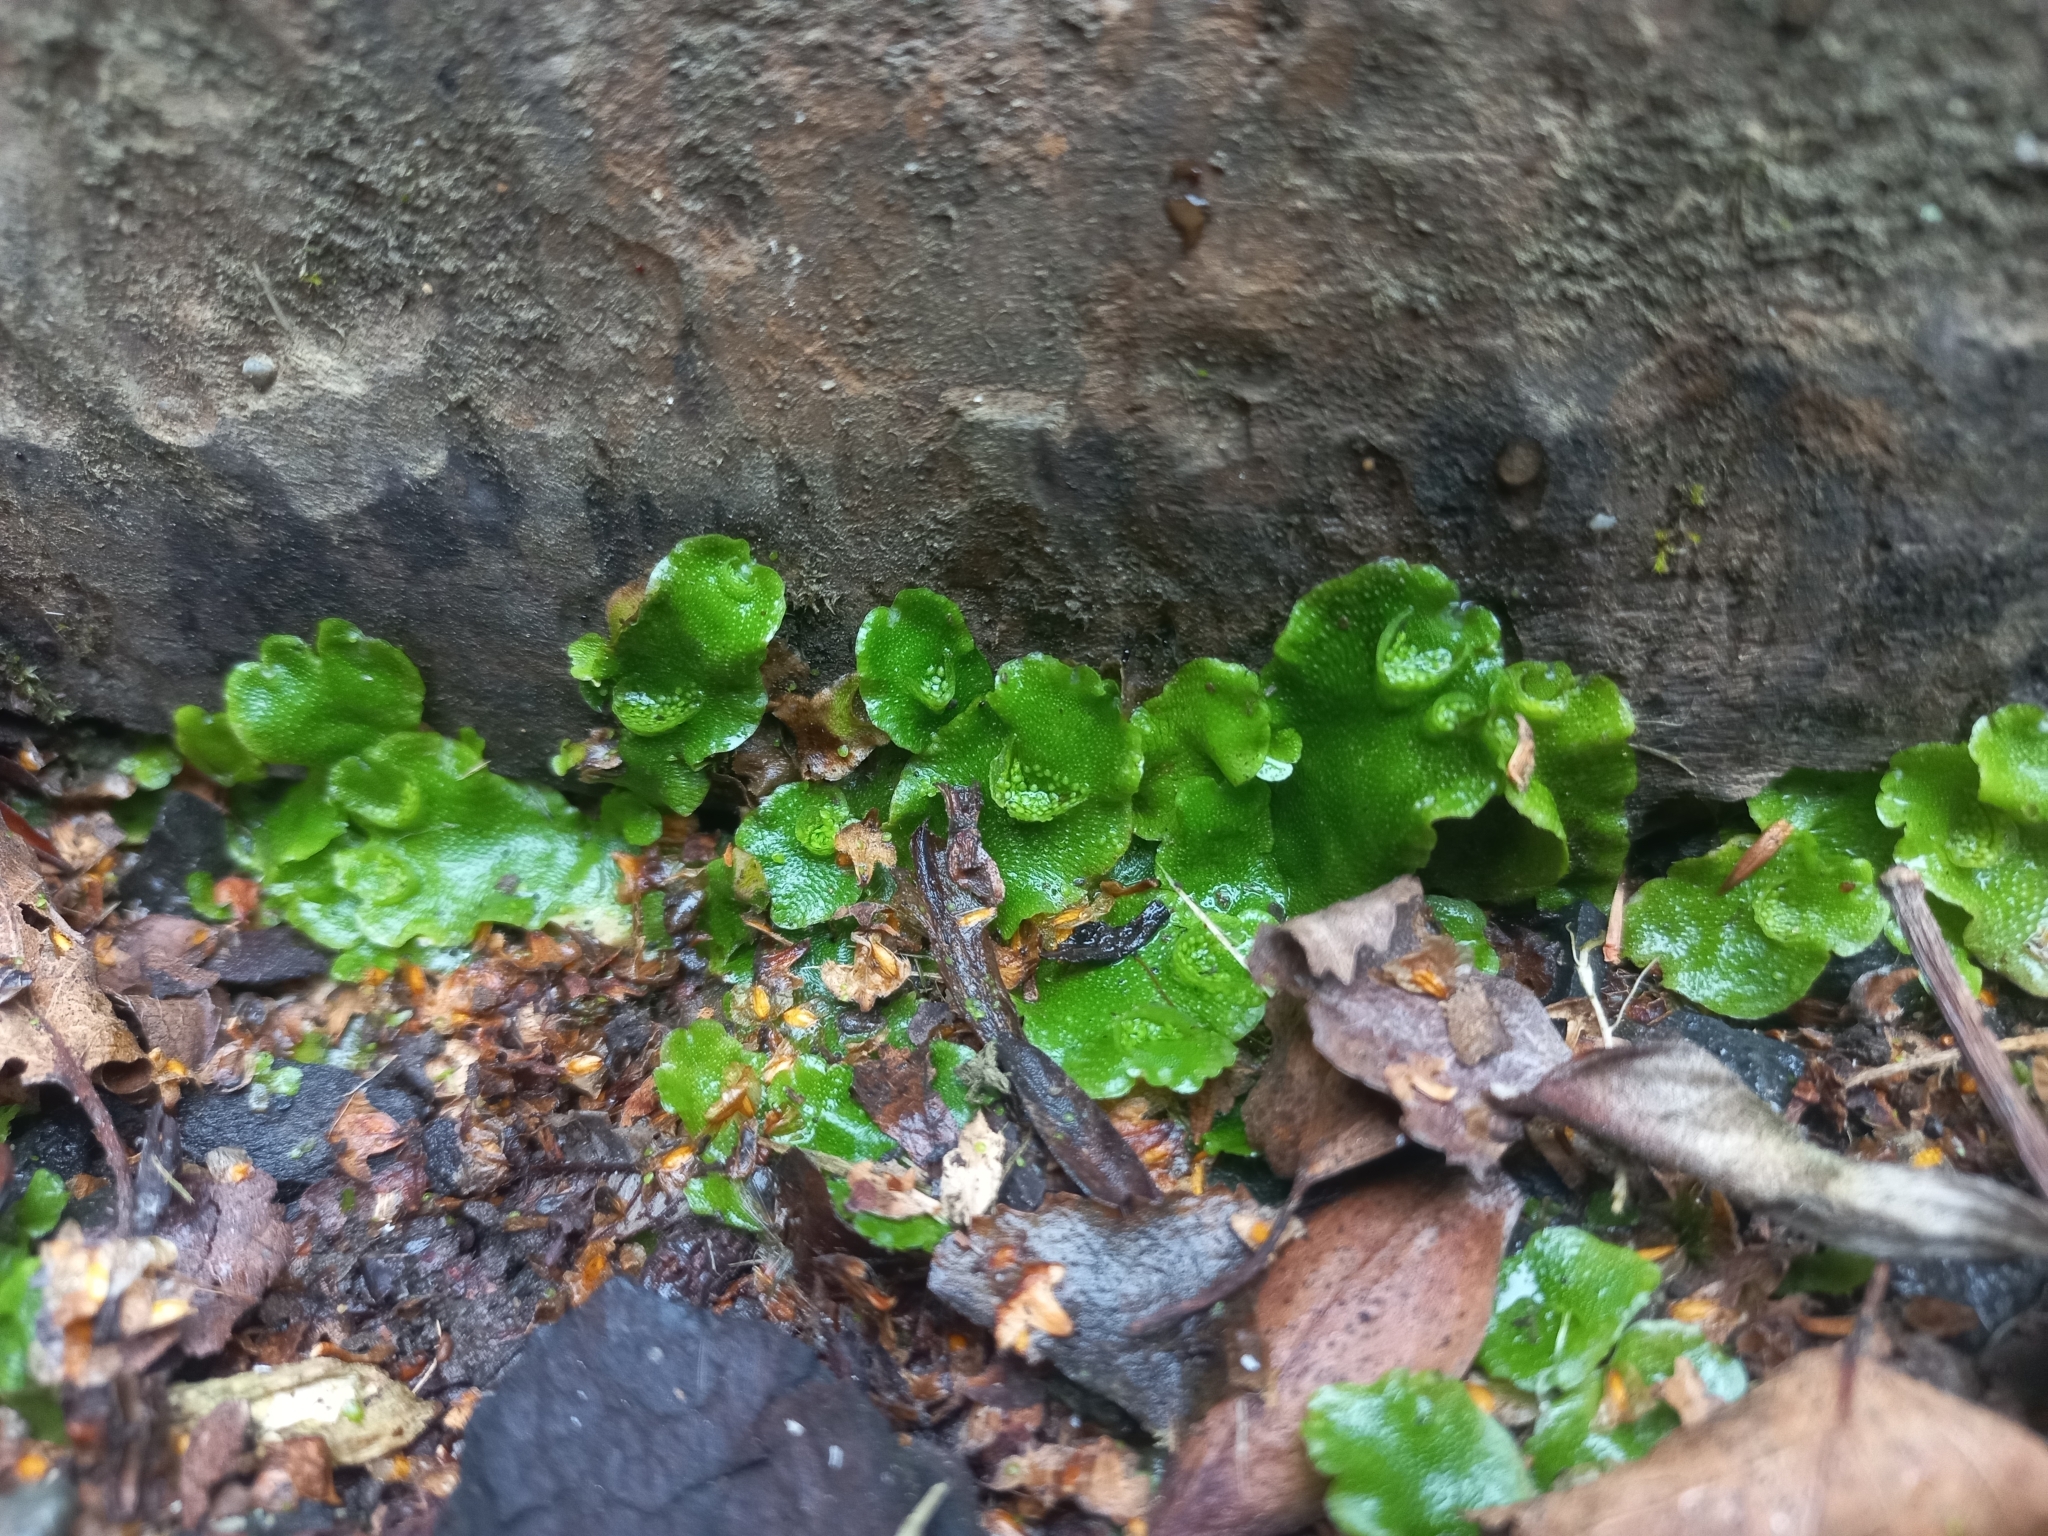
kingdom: Plantae
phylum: Marchantiophyta
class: Marchantiopsida
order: Lunulariales
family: Lunulariaceae
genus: Lunularia
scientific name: Lunularia cruciata
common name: Crescent-cup liverwort
